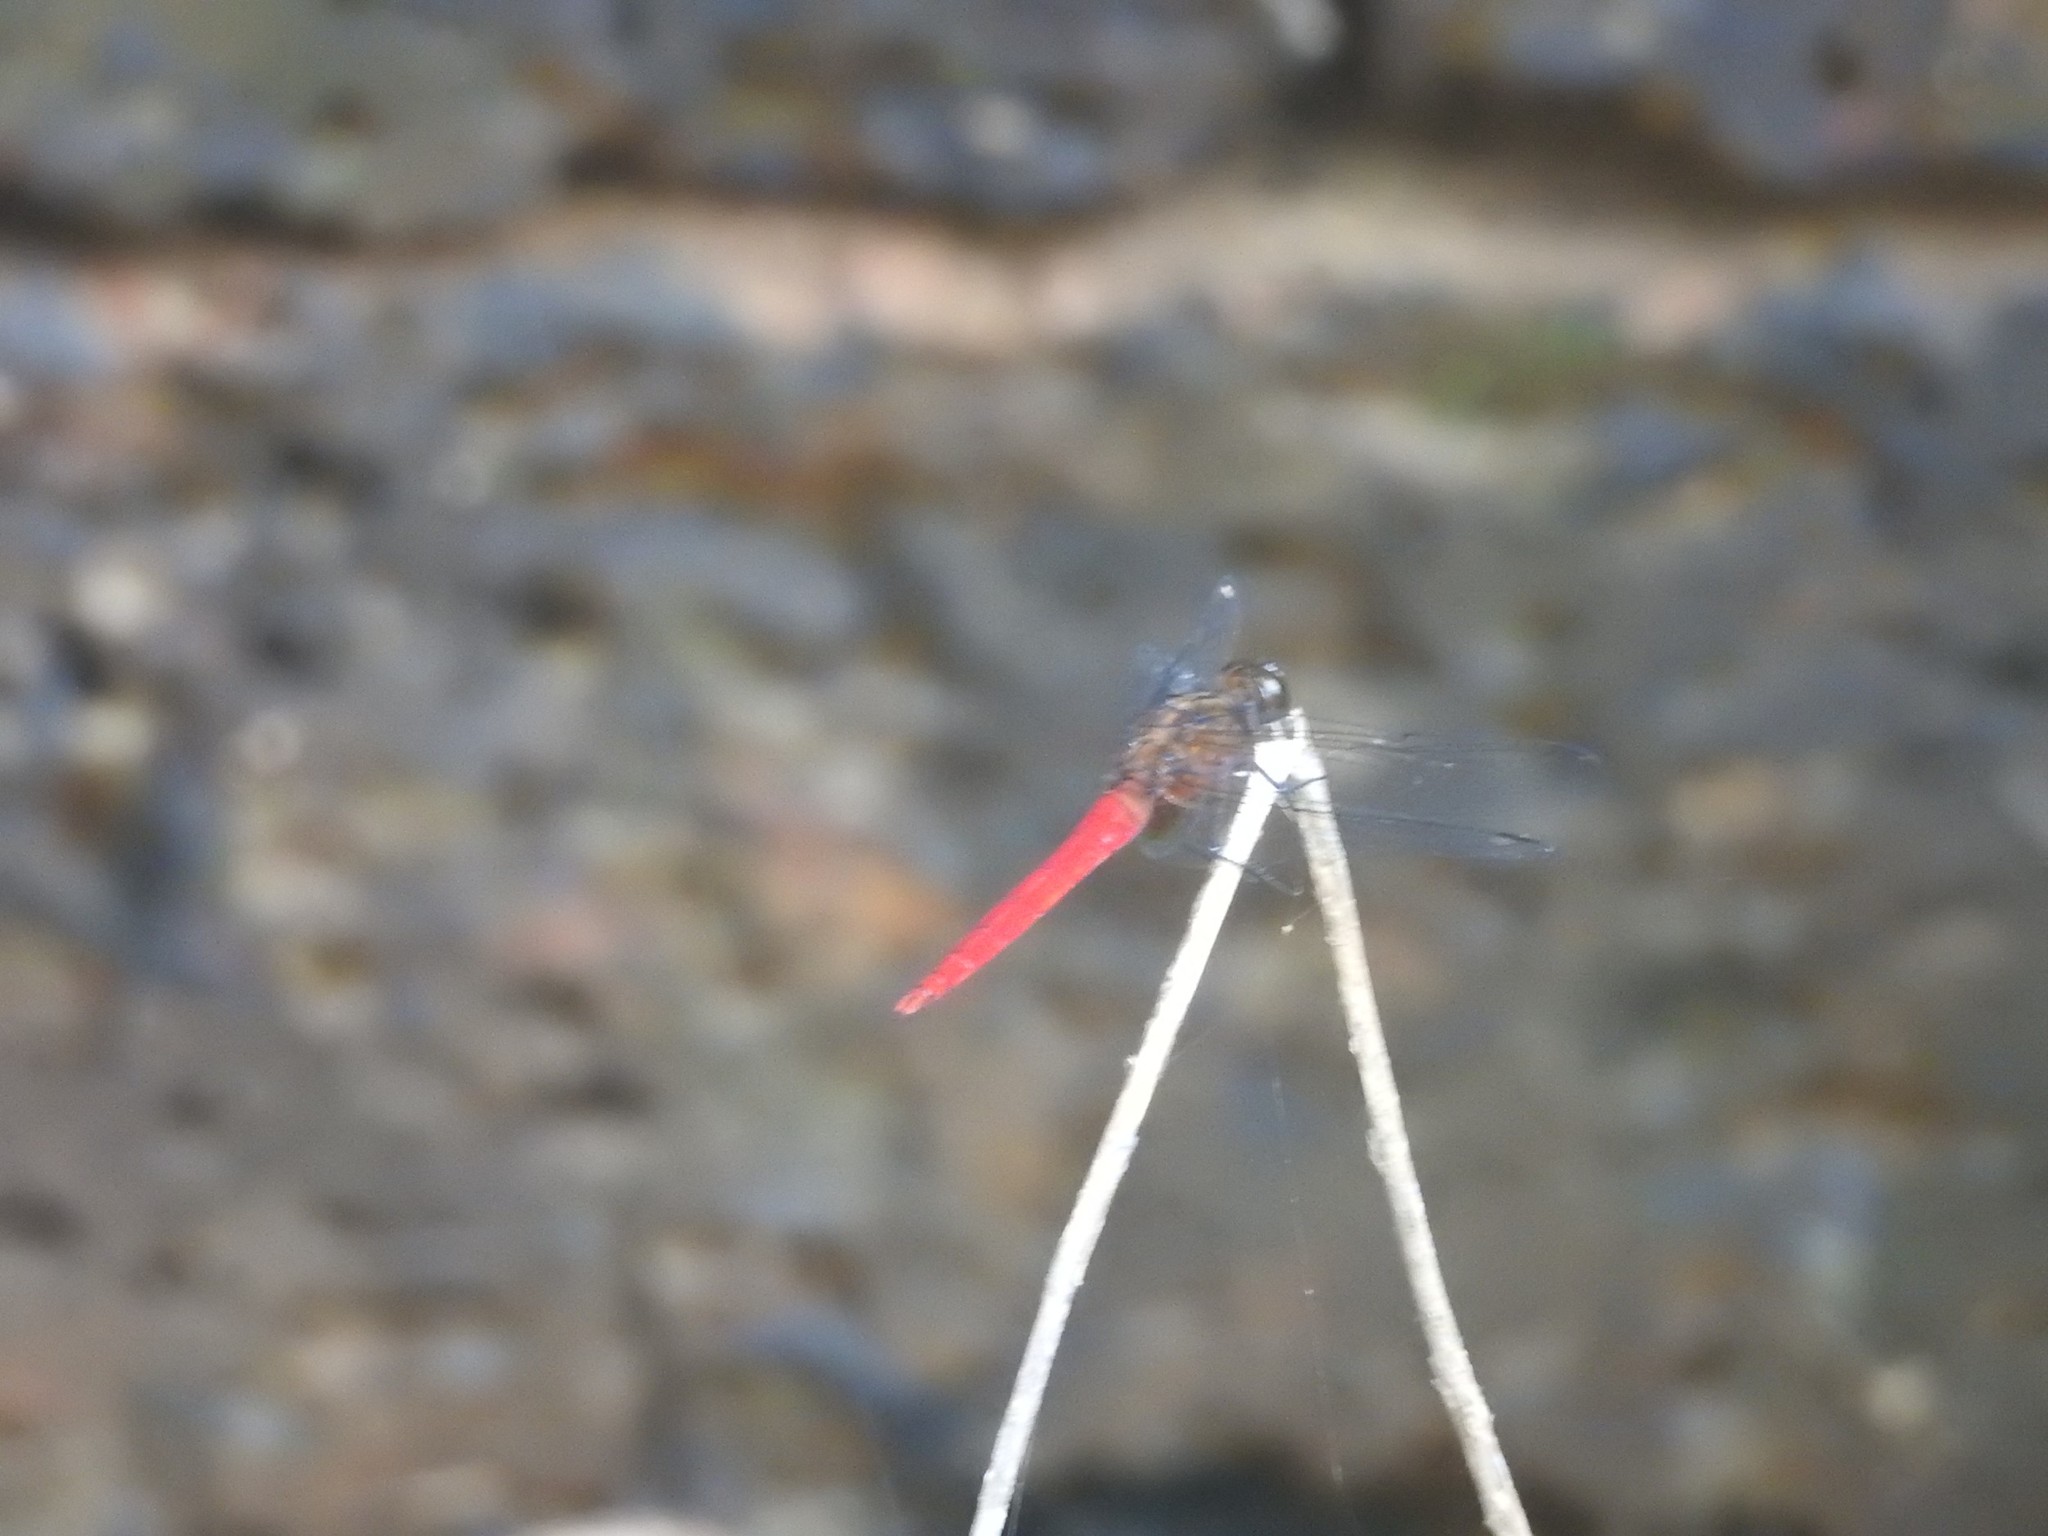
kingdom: Animalia
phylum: Arthropoda
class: Insecta
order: Odonata
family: Libellulidae
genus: Orthetrum
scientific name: Orthetrum chrysis
